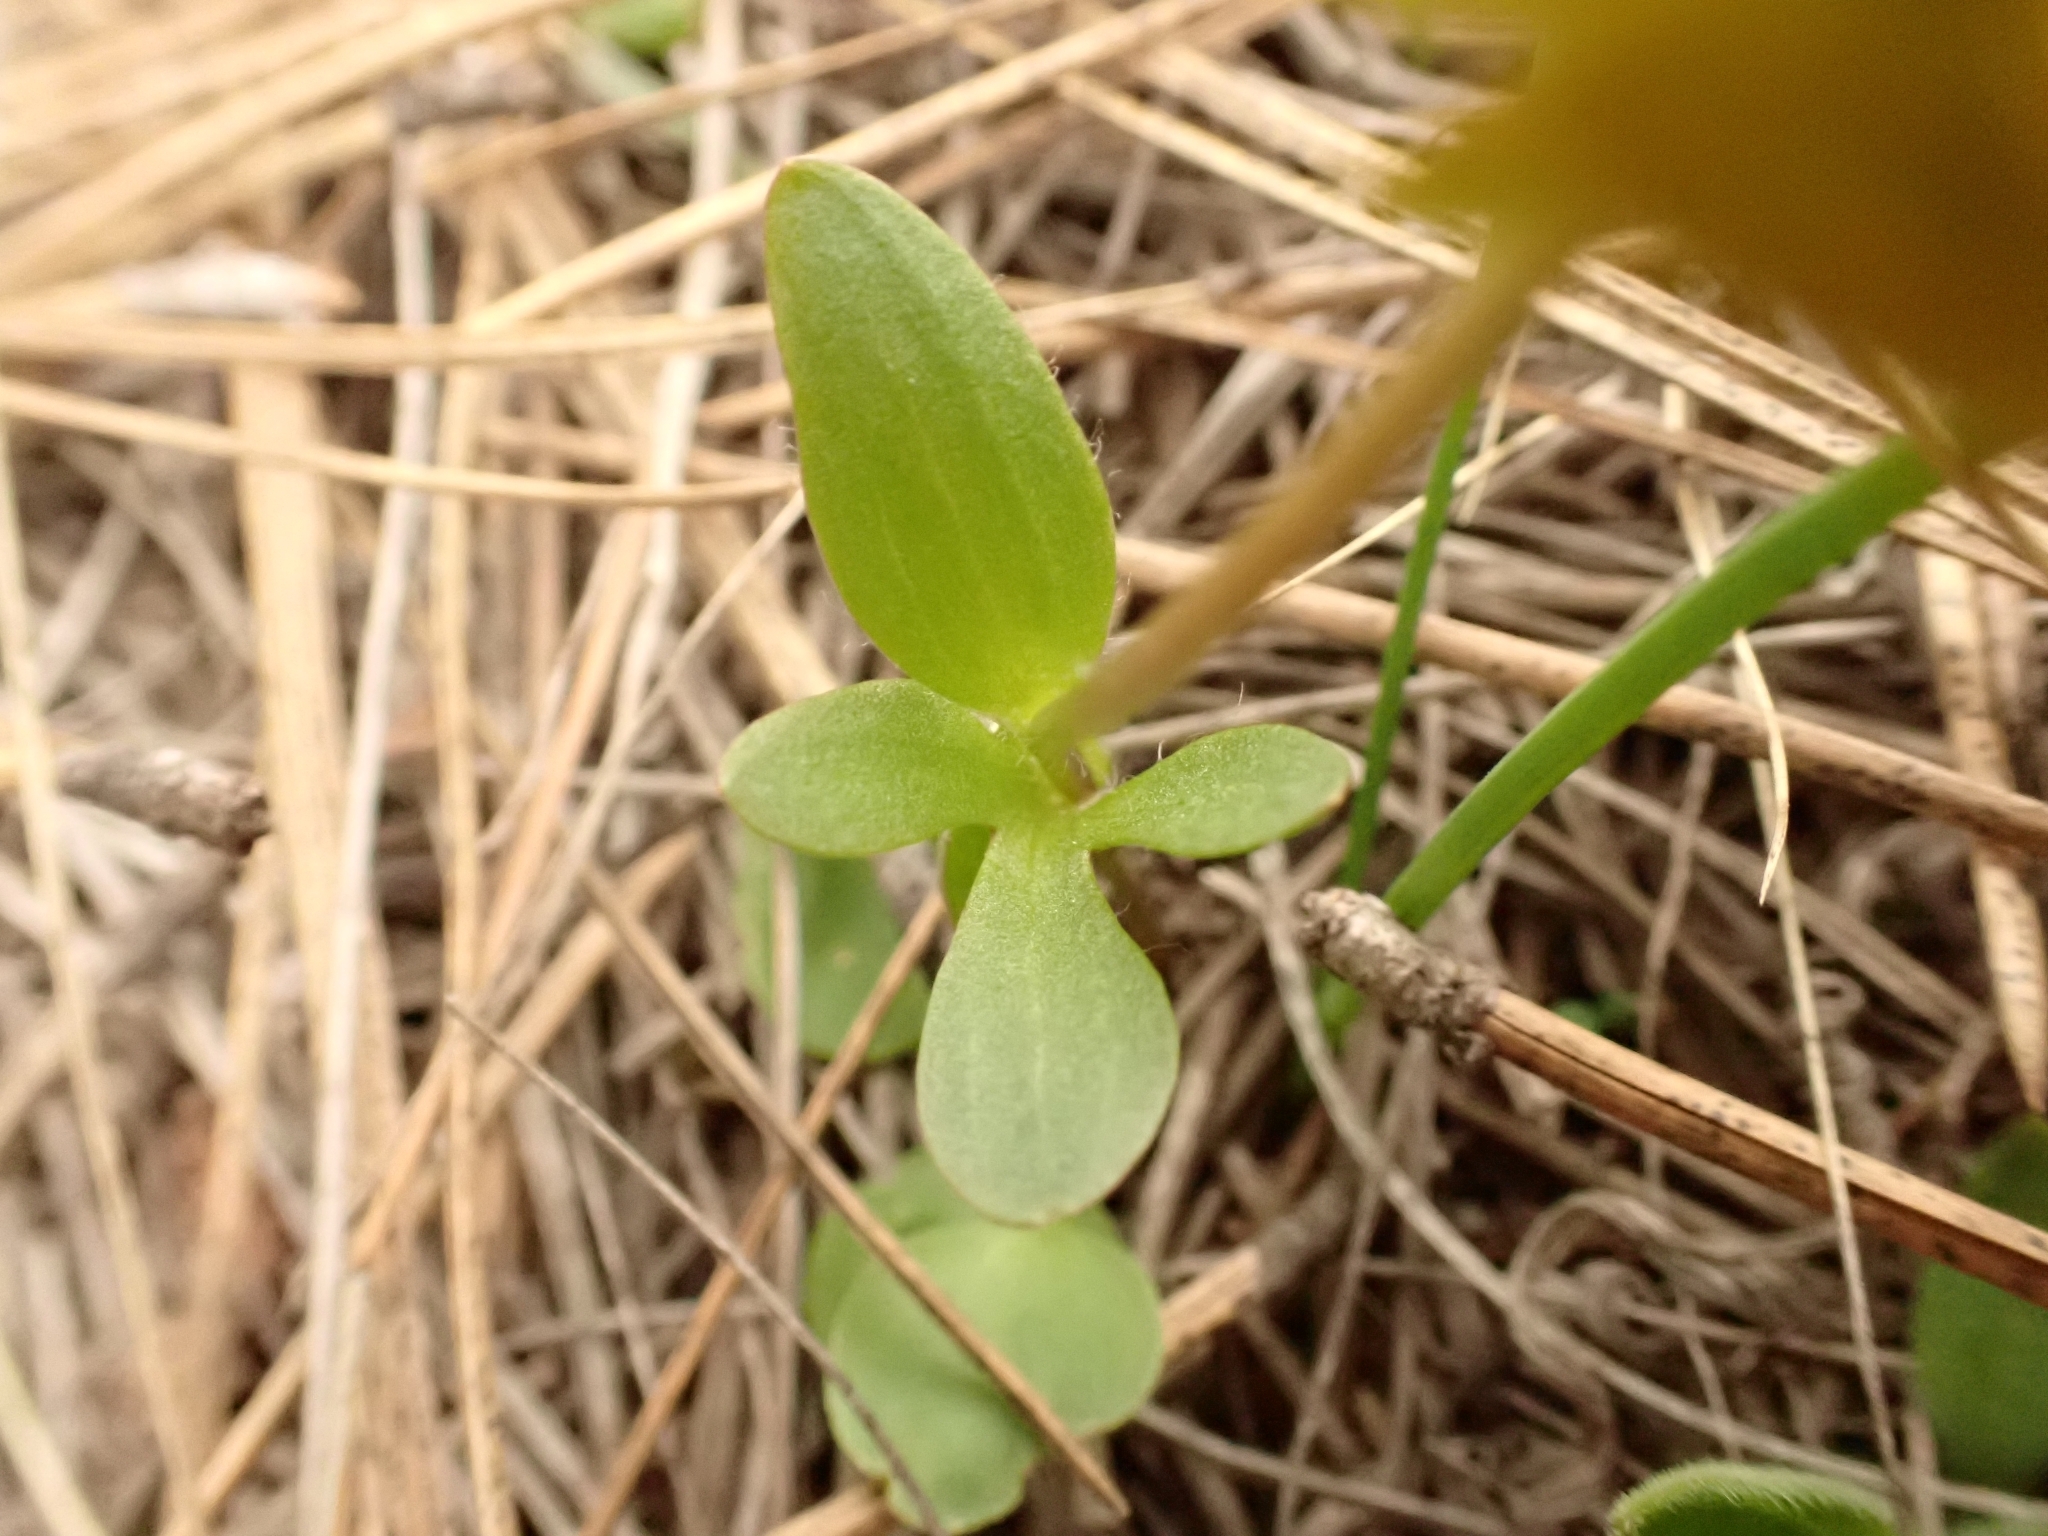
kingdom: Plantae
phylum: Tracheophyta
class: Magnoliopsida
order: Ranunculales
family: Ranunculaceae
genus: Ranunculus
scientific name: Ranunculus glaberrimus
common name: Sagebrush buttercup
